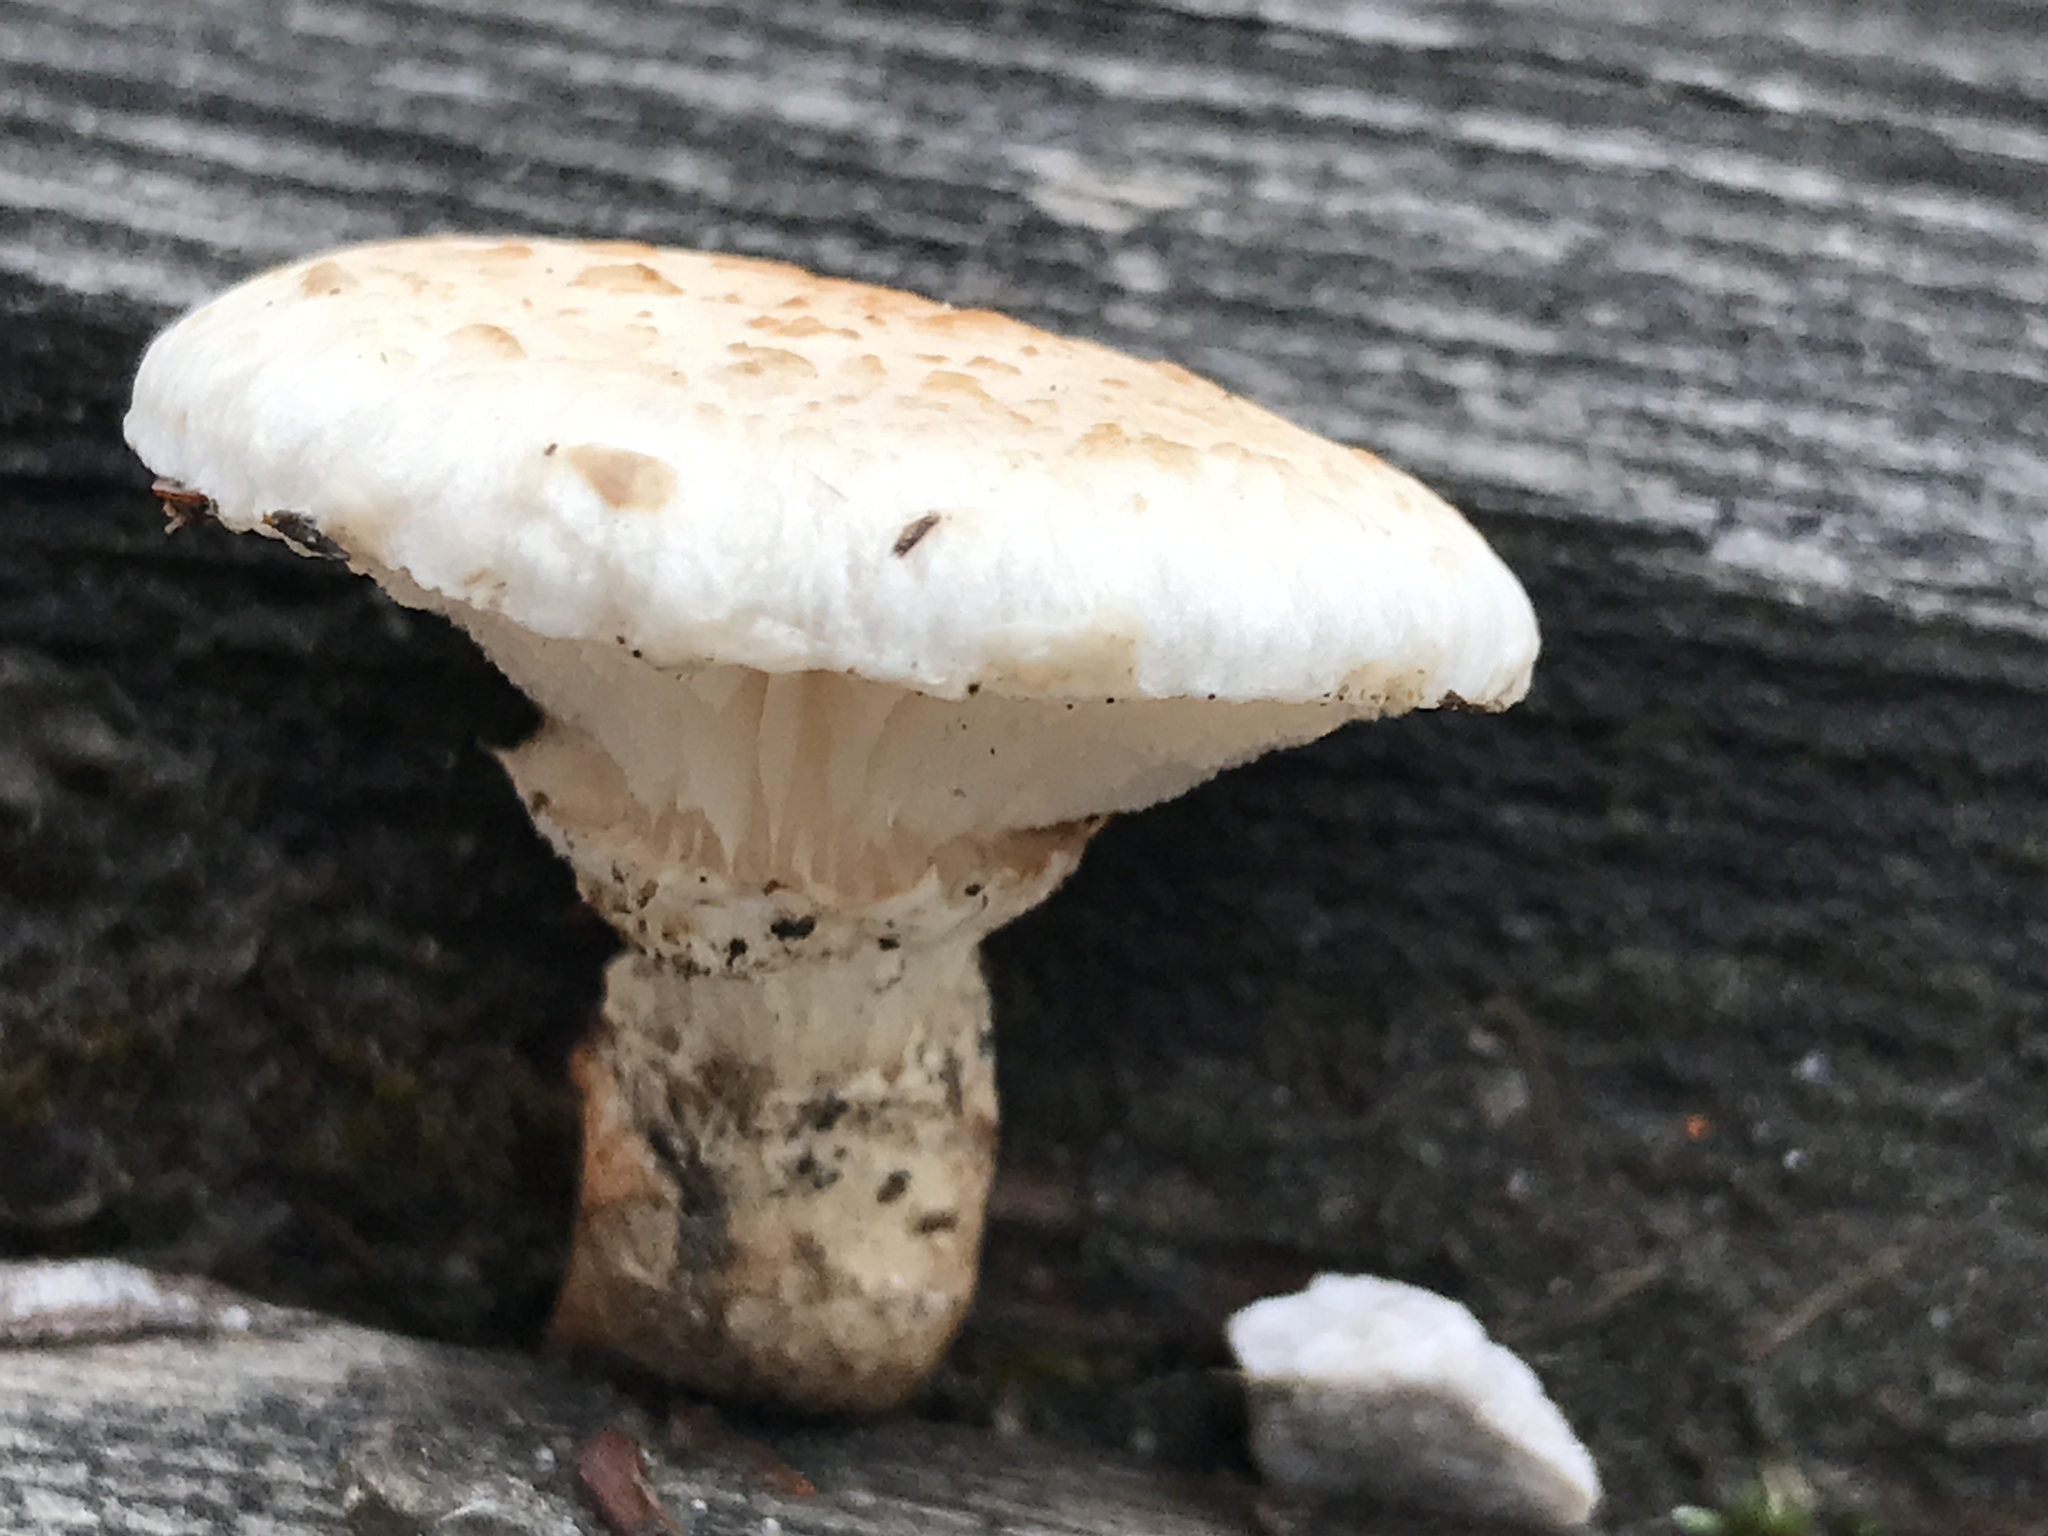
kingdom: Fungi
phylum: Basidiomycota
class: Agaricomycetes
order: Gloeophyllales
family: Gloeophyllaceae
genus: Neolentinus
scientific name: Neolentinus lepideus
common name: Scaly sawgill
